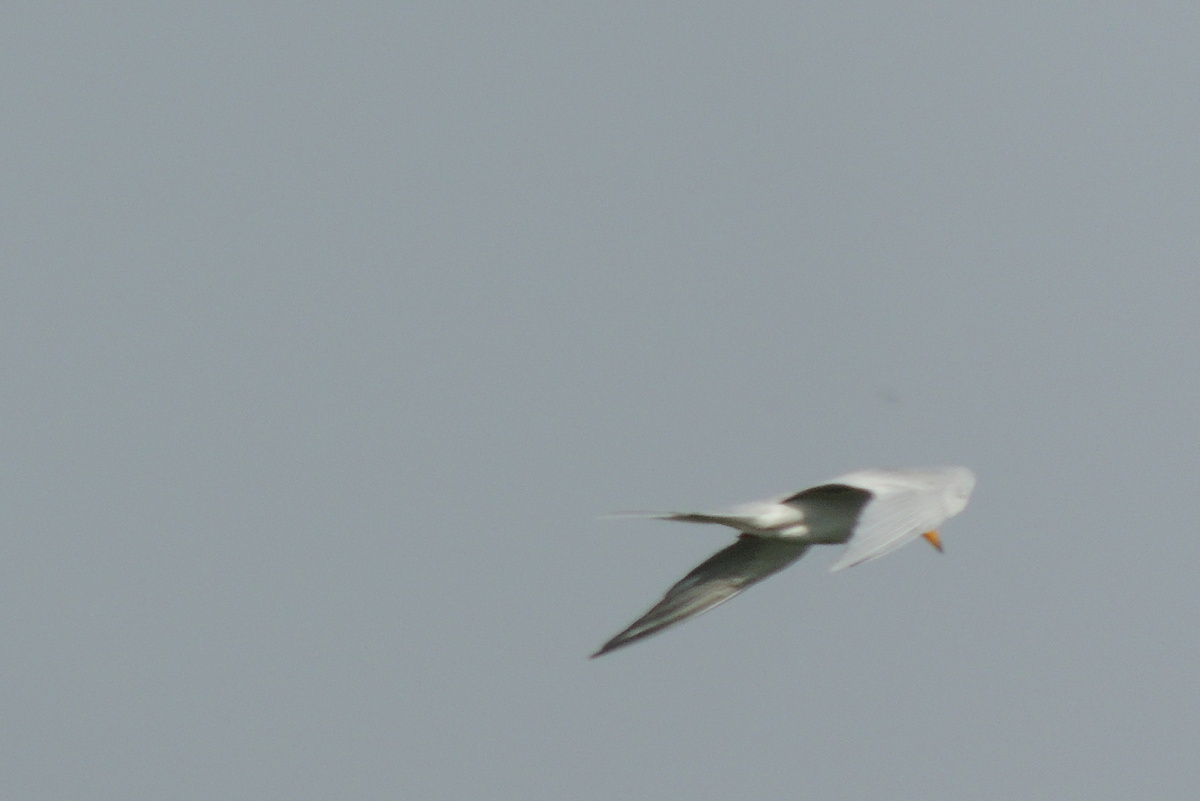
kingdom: Animalia
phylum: Chordata
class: Aves
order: Charadriiformes
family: Laridae
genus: Sterna
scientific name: Sterna aurantia
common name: River tern
